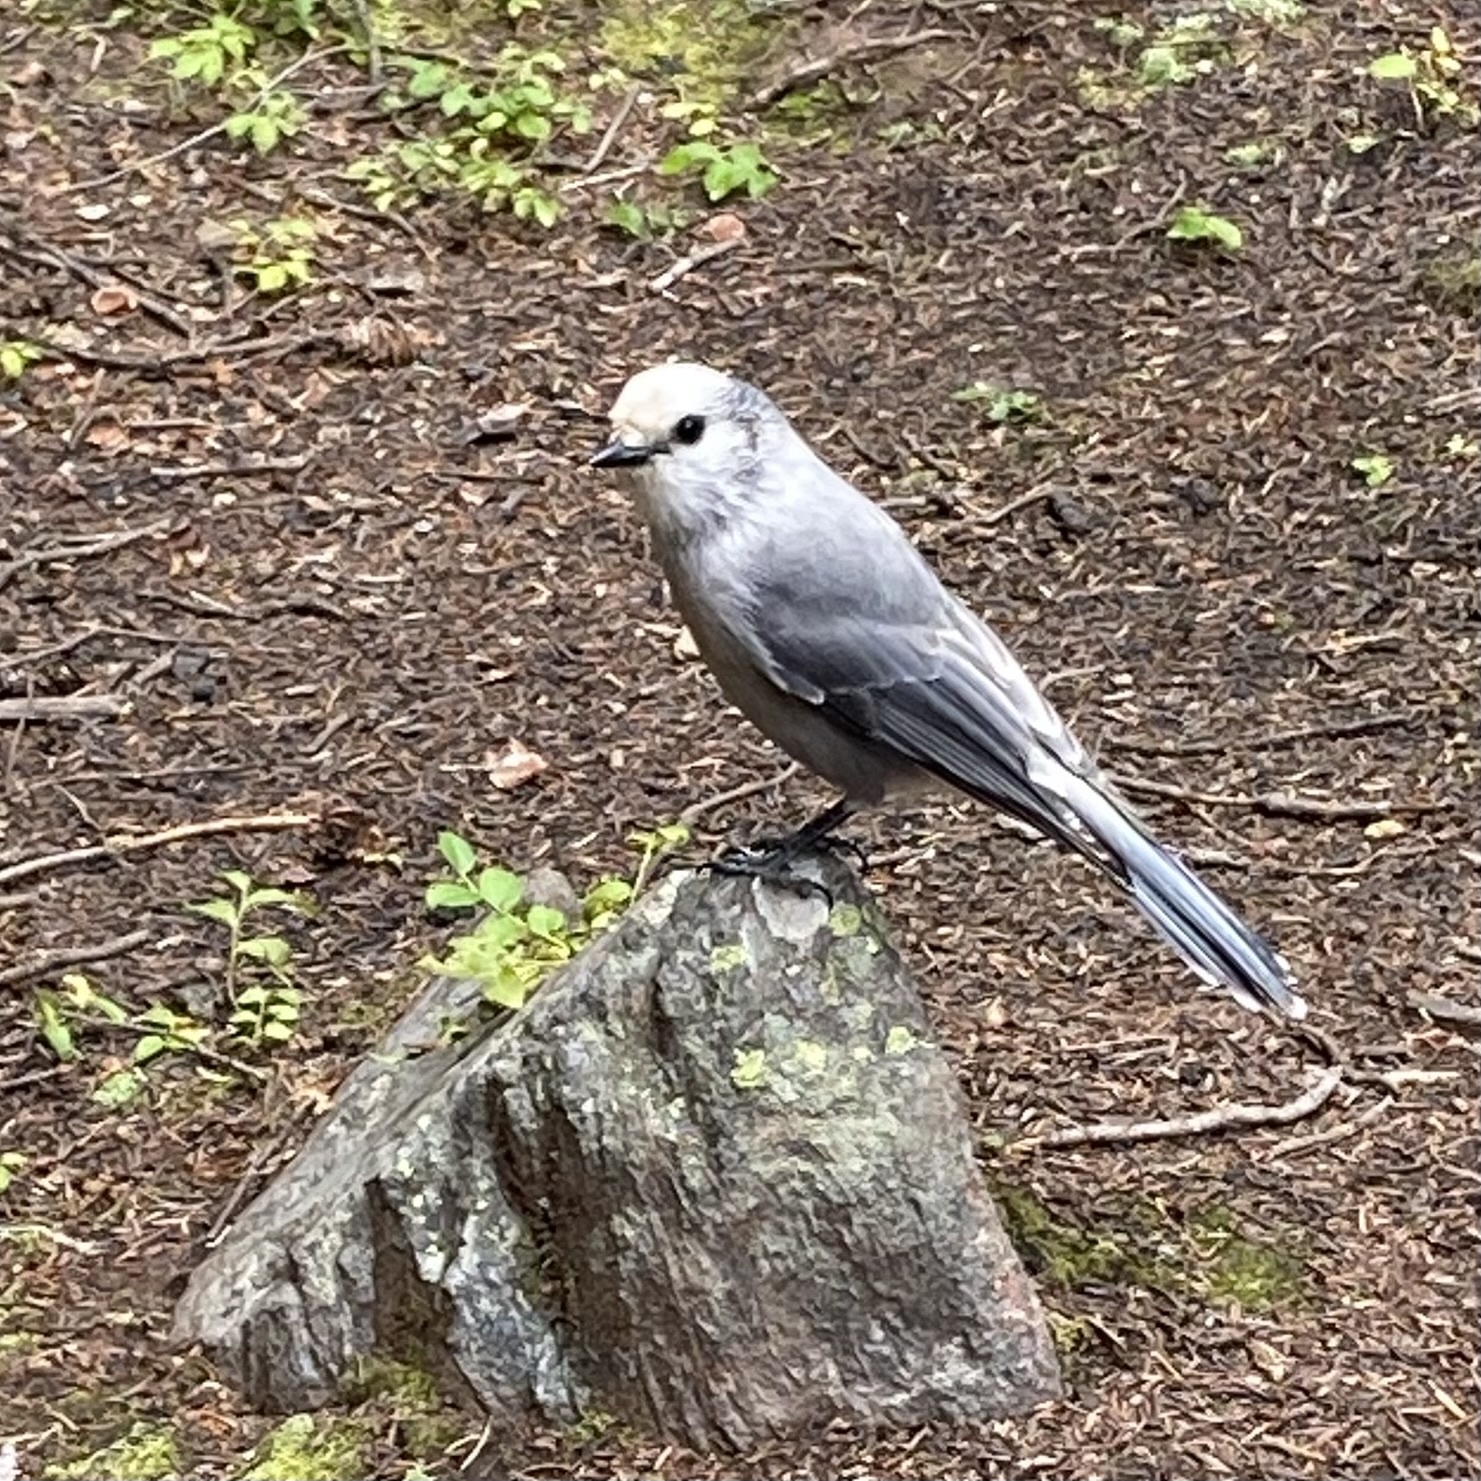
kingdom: Animalia
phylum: Chordata
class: Aves
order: Passeriformes
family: Corvidae
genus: Perisoreus
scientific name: Perisoreus canadensis
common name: Gray jay
